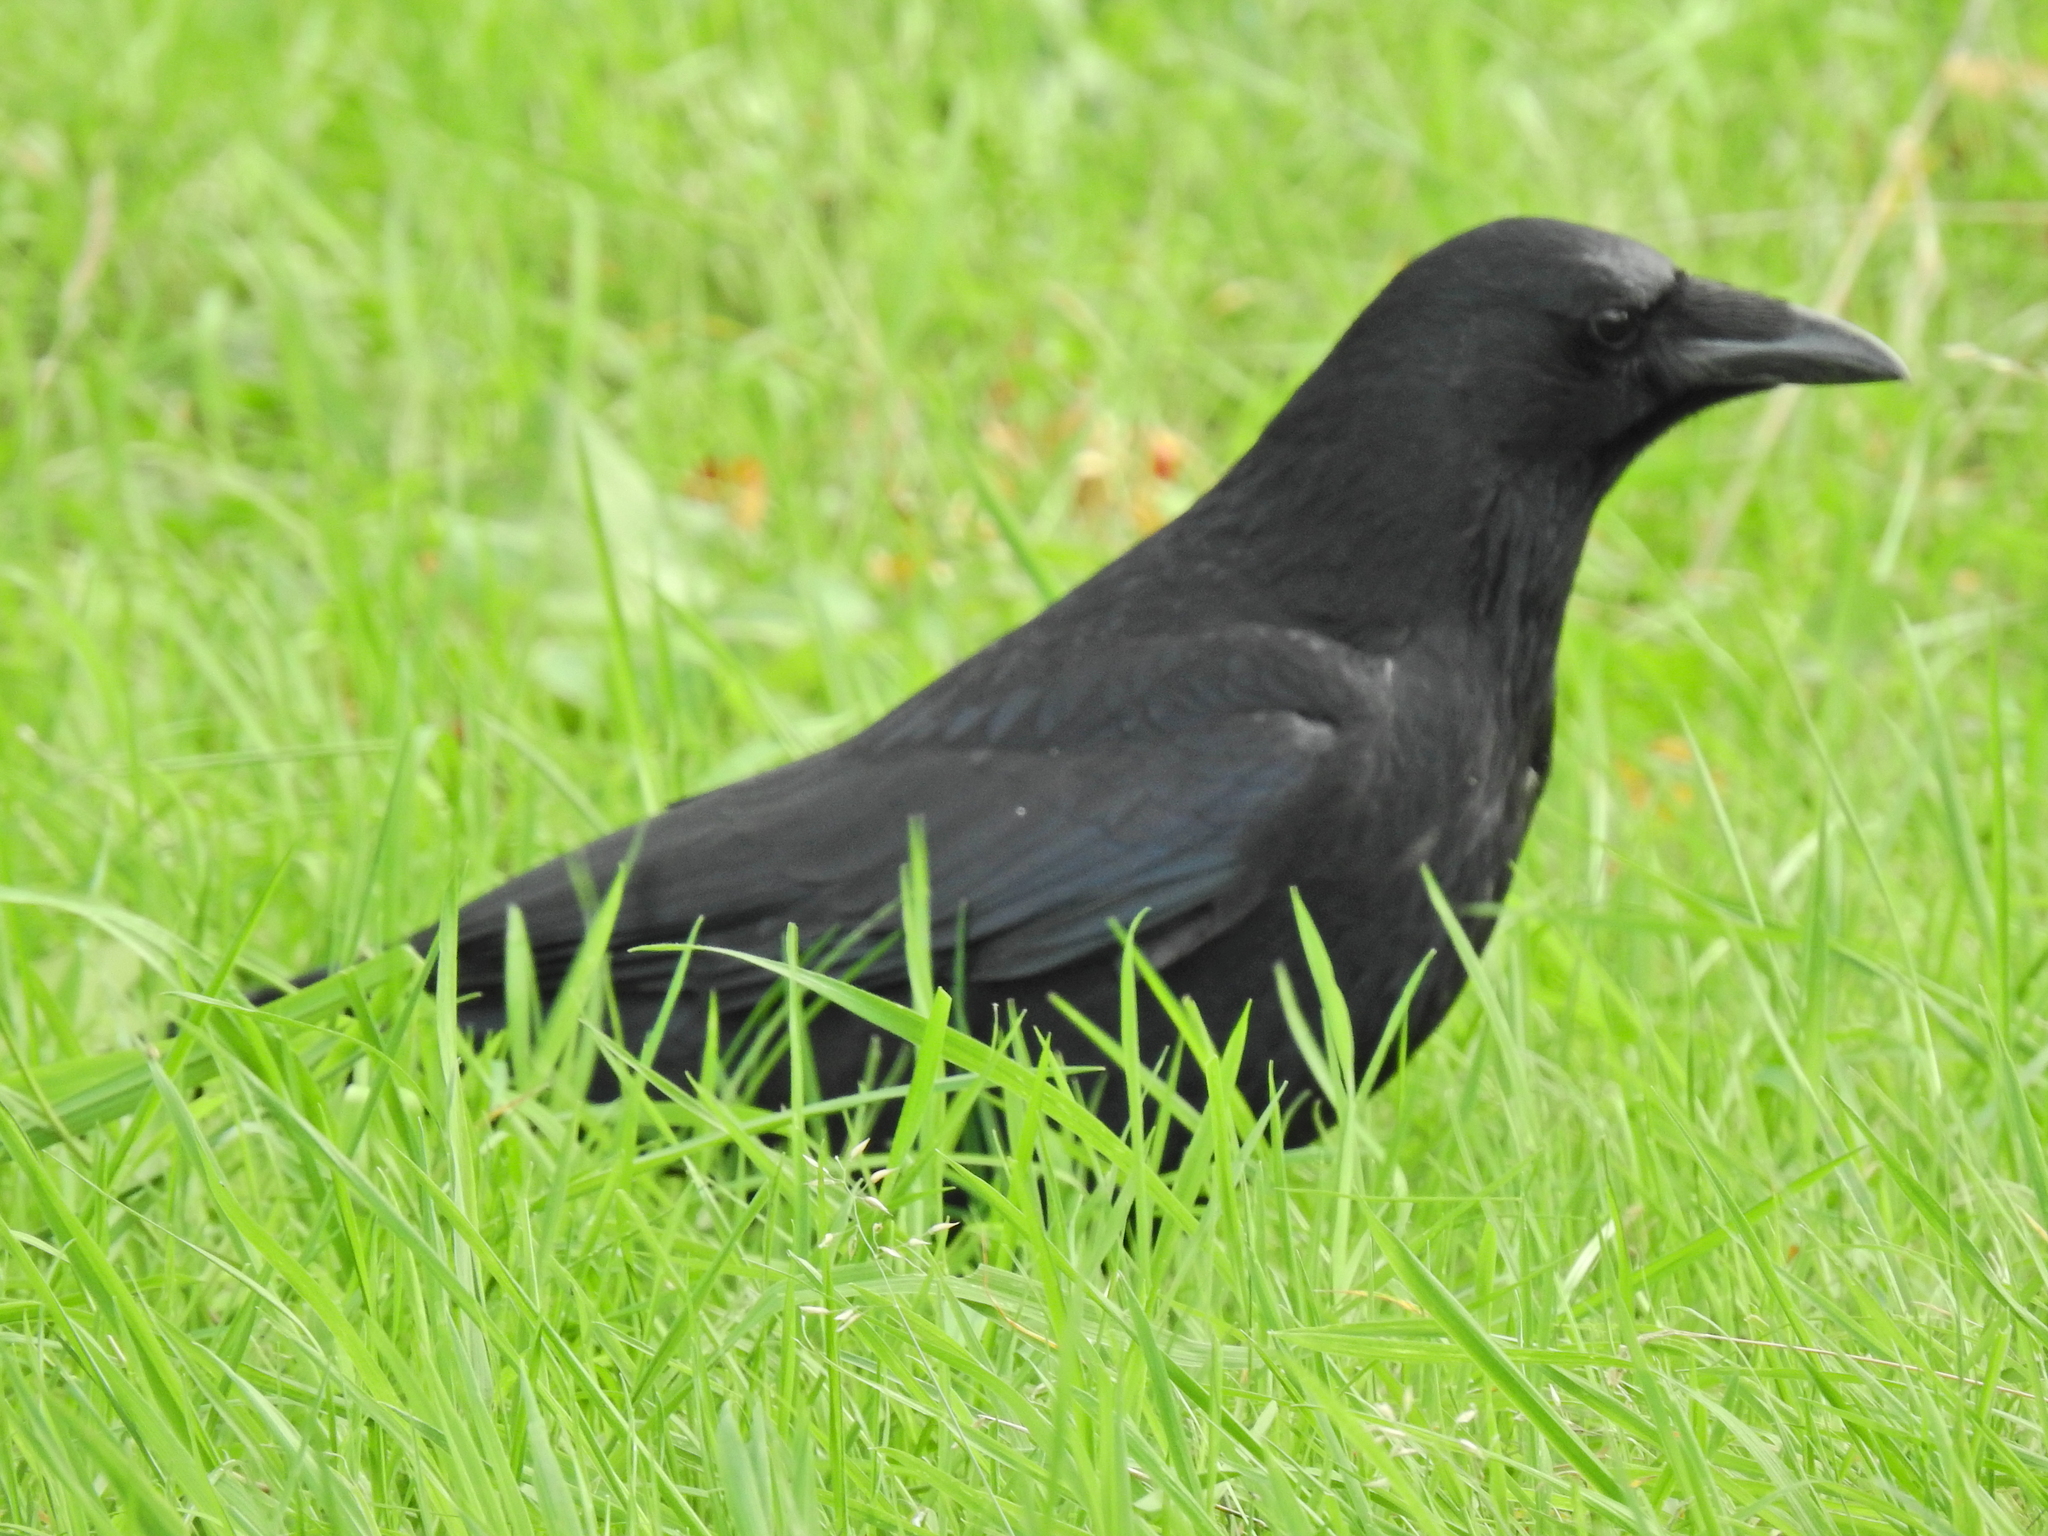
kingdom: Animalia
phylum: Chordata
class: Aves
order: Passeriformes
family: Corvidae
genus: Corvus
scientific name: Corvus corone
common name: Carrion crow
